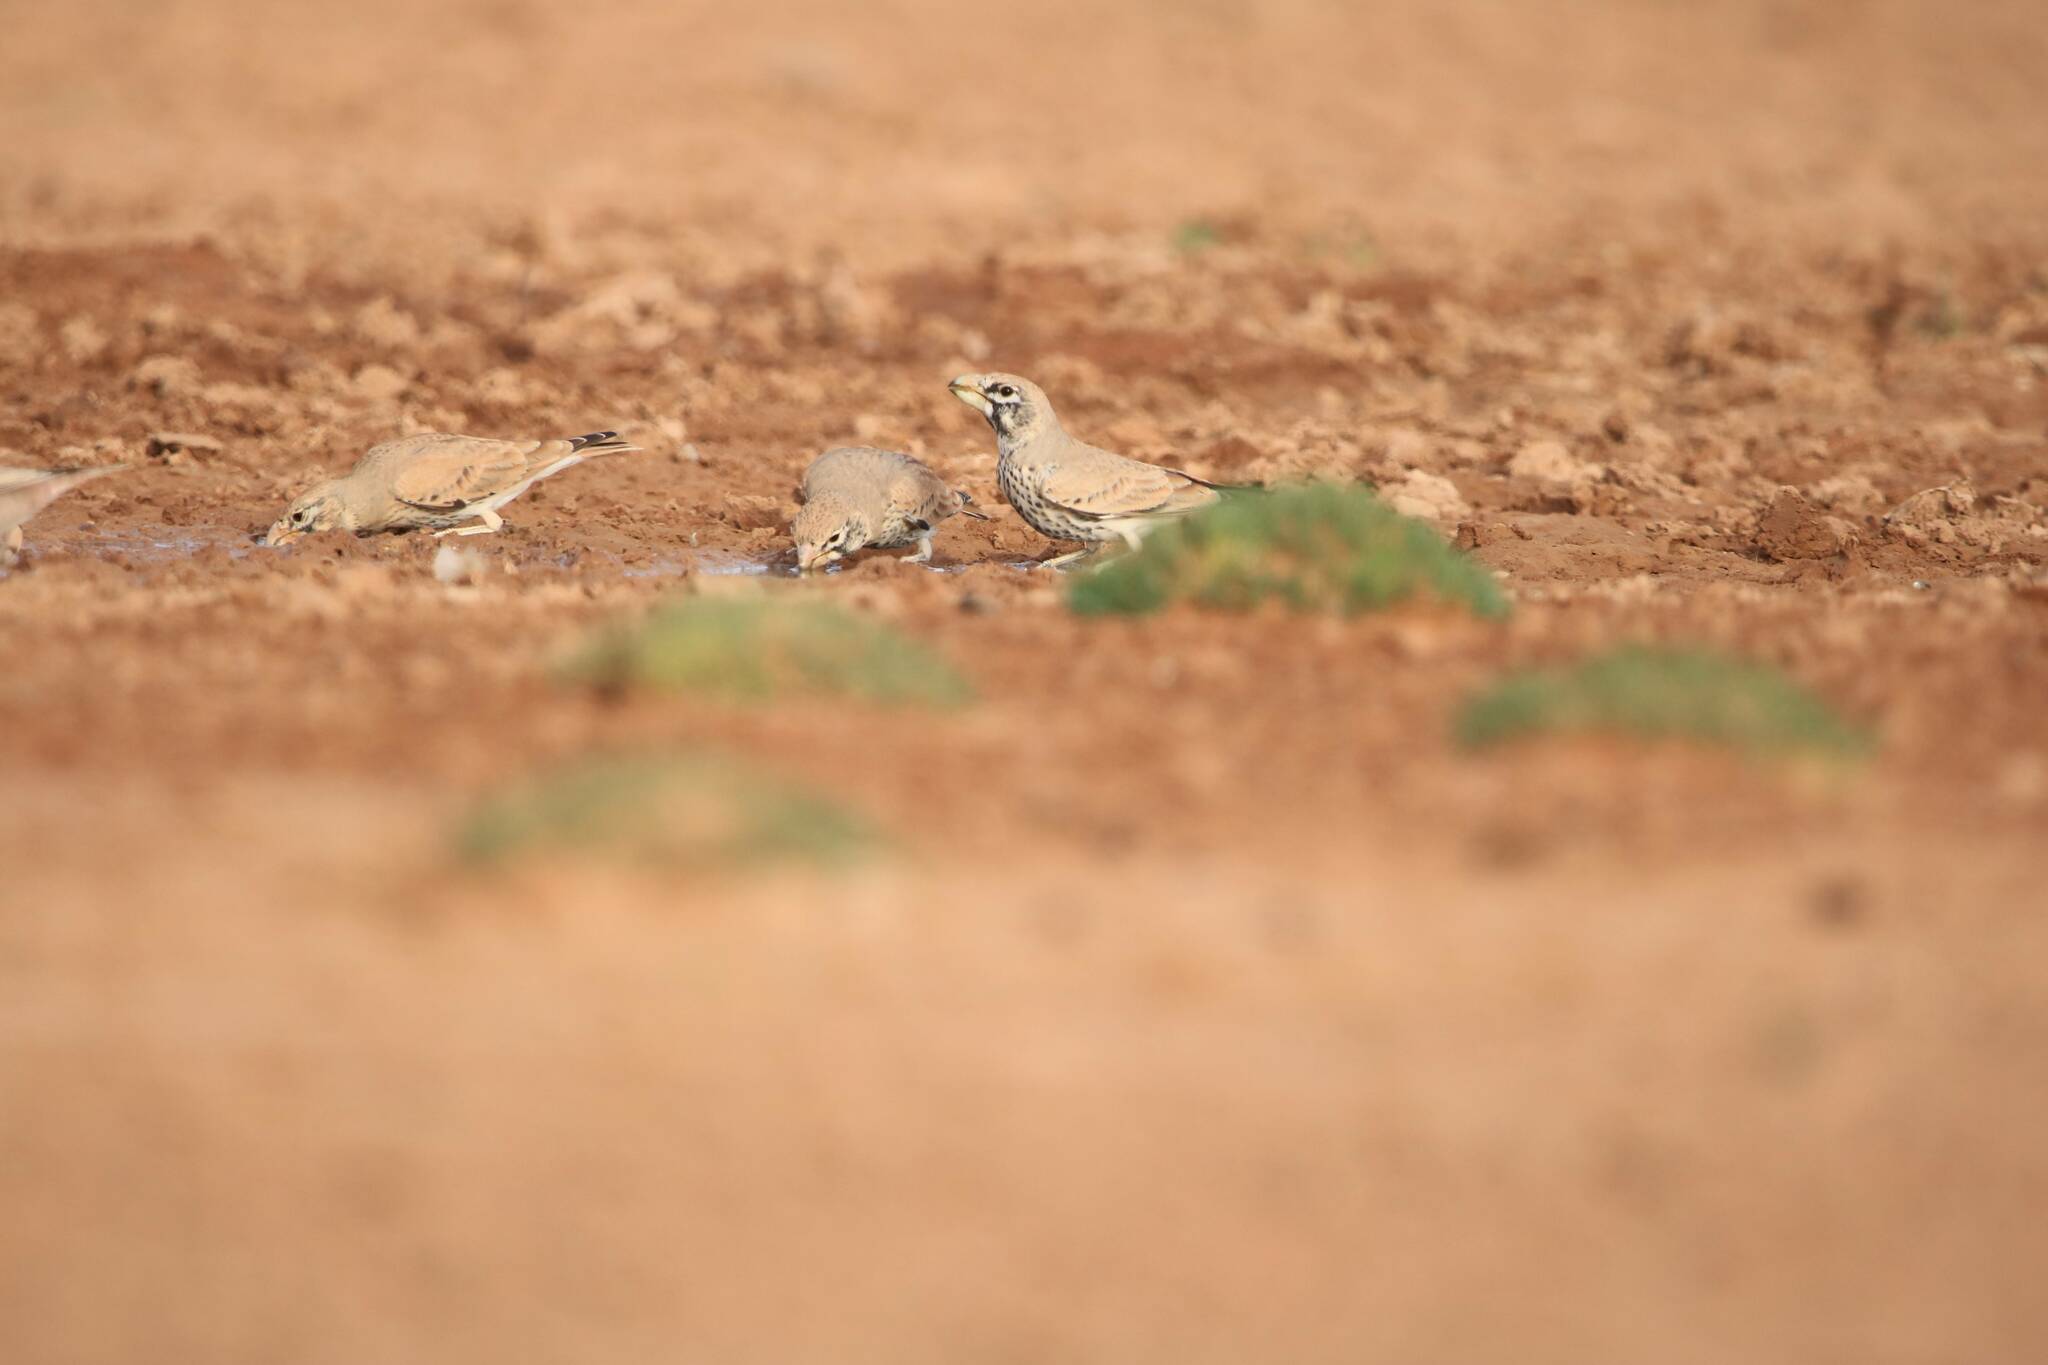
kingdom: Animalia
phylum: Chordata
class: Aves
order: Passeriformes
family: Alaudidae
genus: Ramphocoris
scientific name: Ramphocoris clotbey
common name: Thick-billed lark
